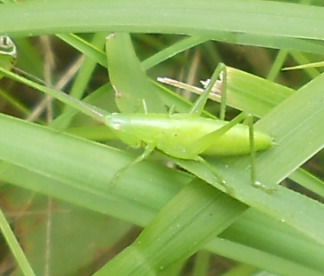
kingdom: Animalia
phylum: Arthropoda
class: Insecta
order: Orthoptera
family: Tettigoniidae
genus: Ruspolia
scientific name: Ruspolia nitidula
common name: Large conehead
